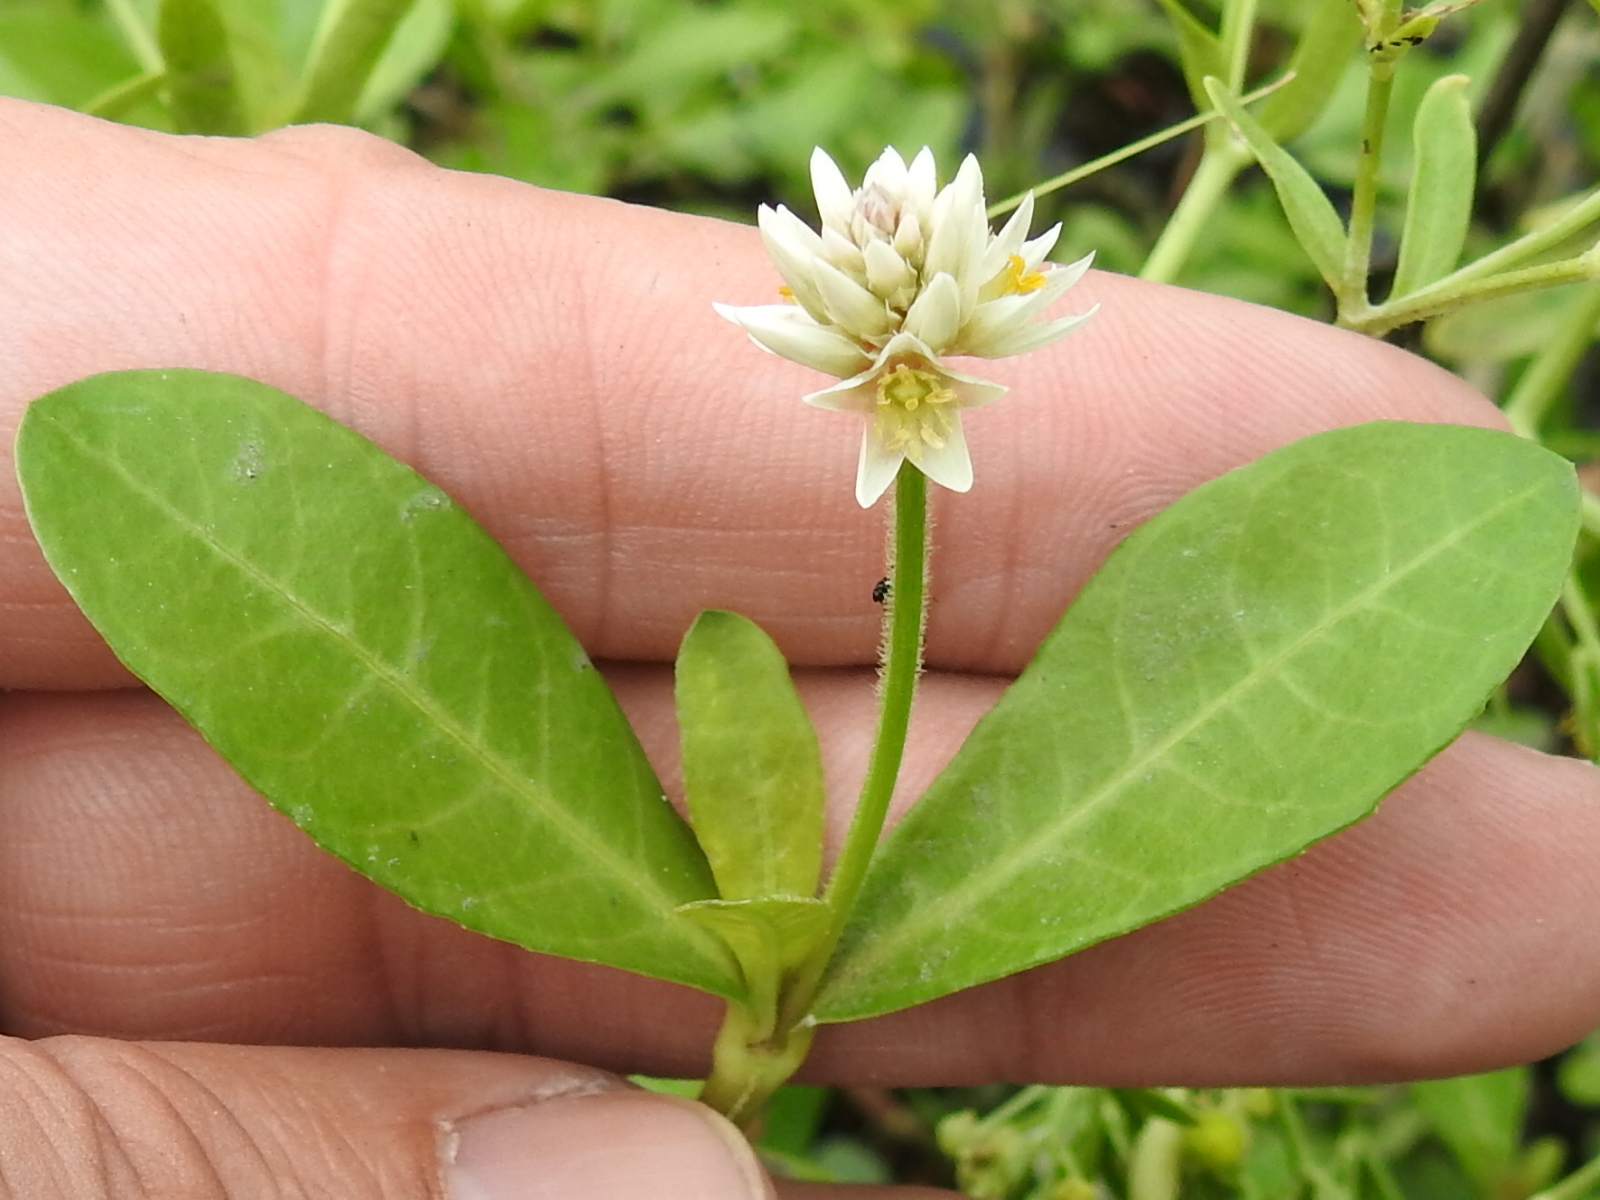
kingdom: Plantae
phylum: Tracheophyta
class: Magnoliopsida
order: Caryophyllales
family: Amaranthaceae
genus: Alternanthera
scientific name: Alternanthera philoxeroides
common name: Alligatorweed
